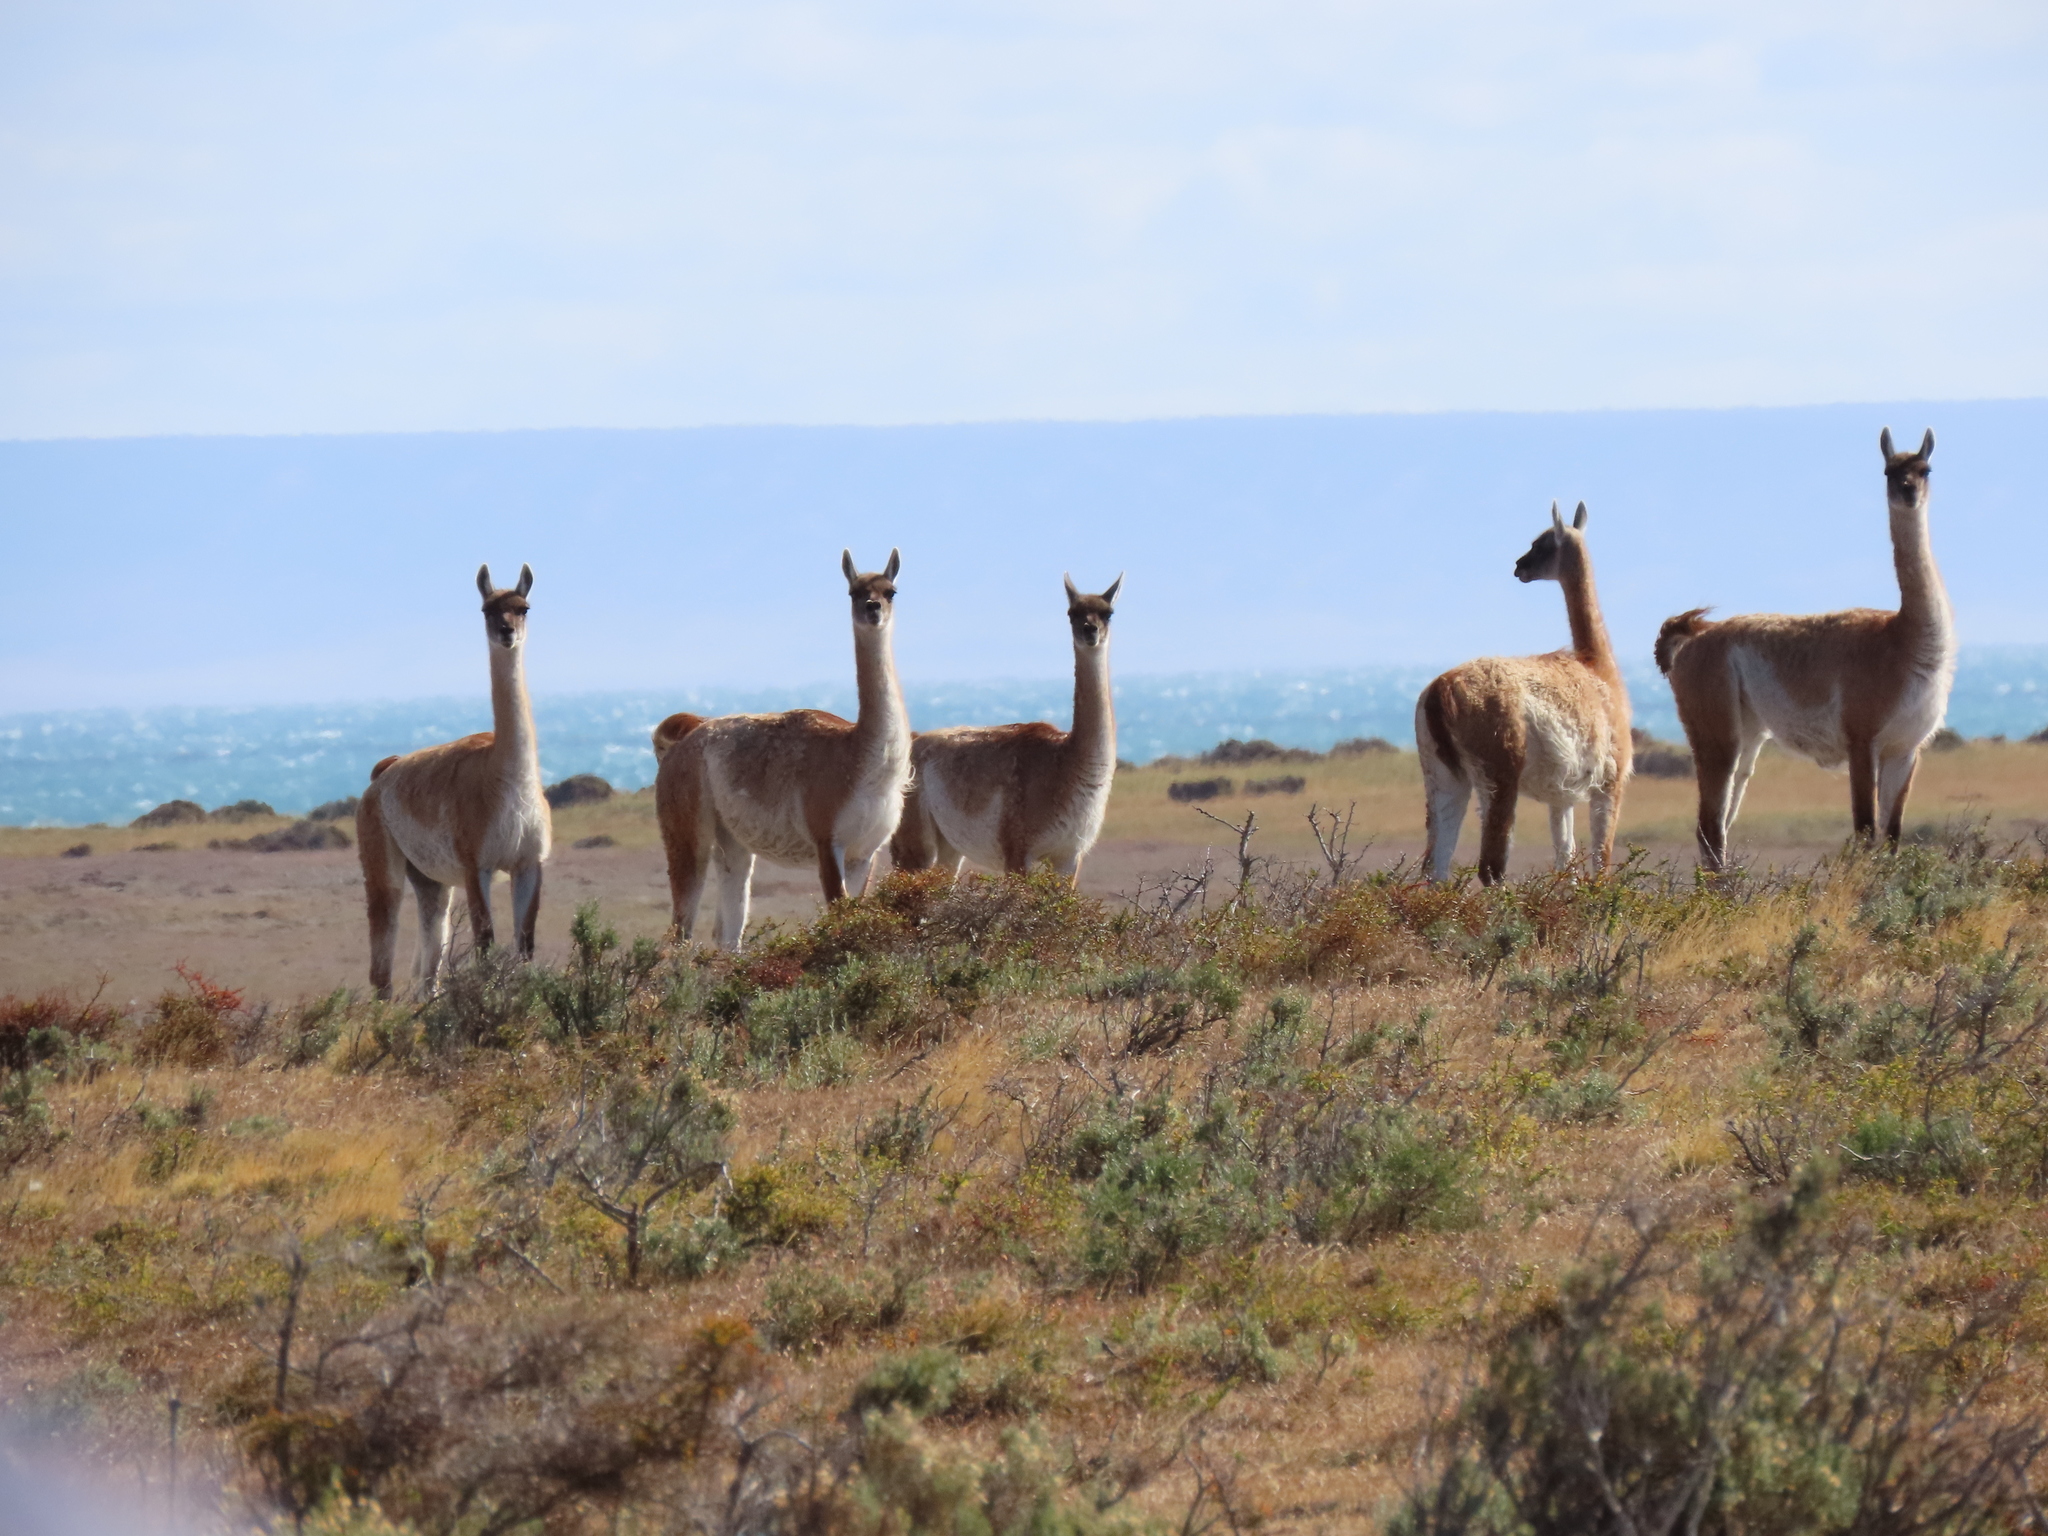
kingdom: Animalia
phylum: Chordata
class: Mammalia
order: Artiodactyla
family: Camelidae
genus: Lama
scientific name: Lama glama
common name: Llama
